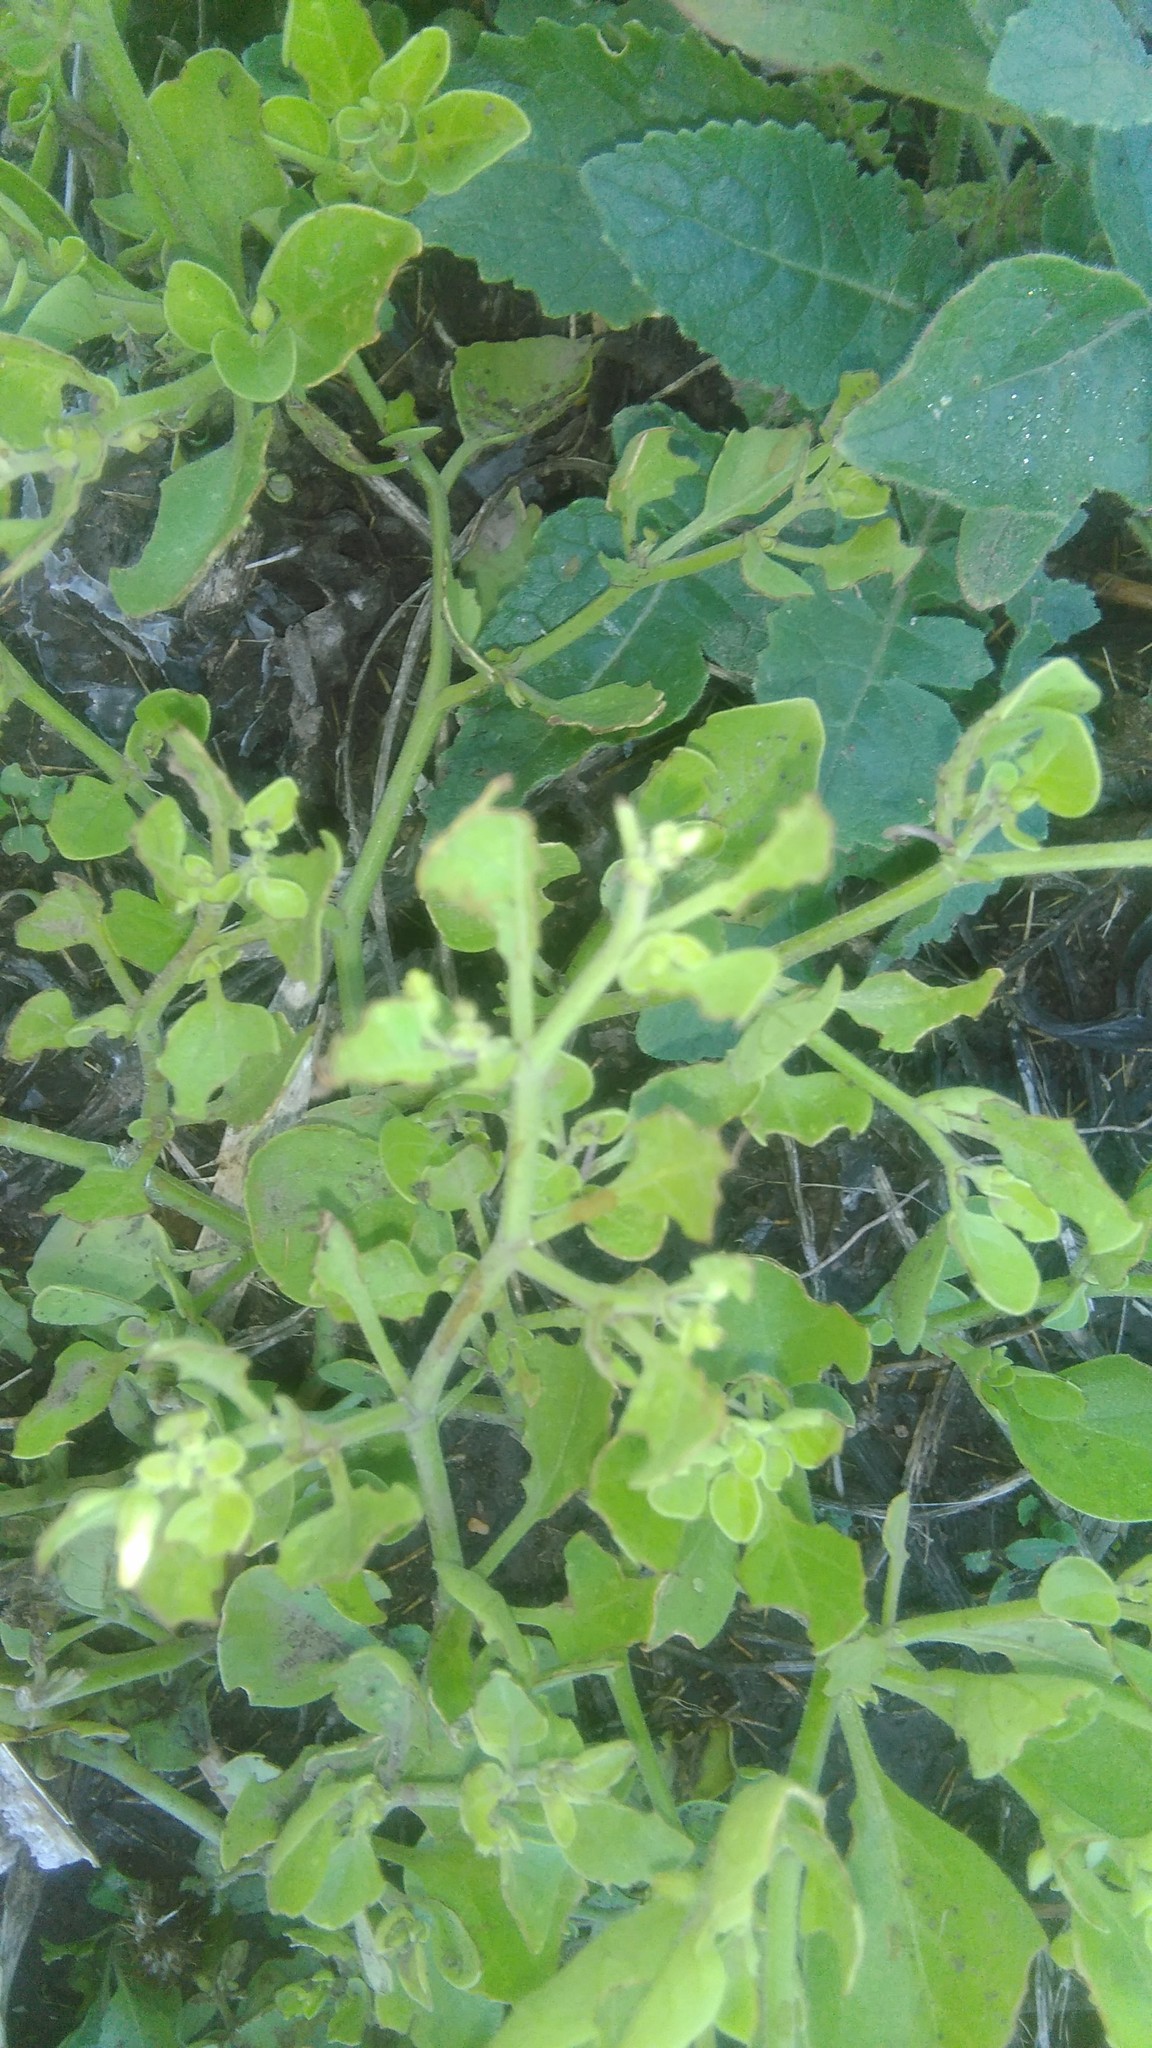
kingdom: Plantae
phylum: Tracheophyta
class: Magnoliopsida
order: Solanales
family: Solanaceae
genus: Salpichroa
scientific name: Salpichroa origanifolia
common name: Lily-of-the-valley-vine
